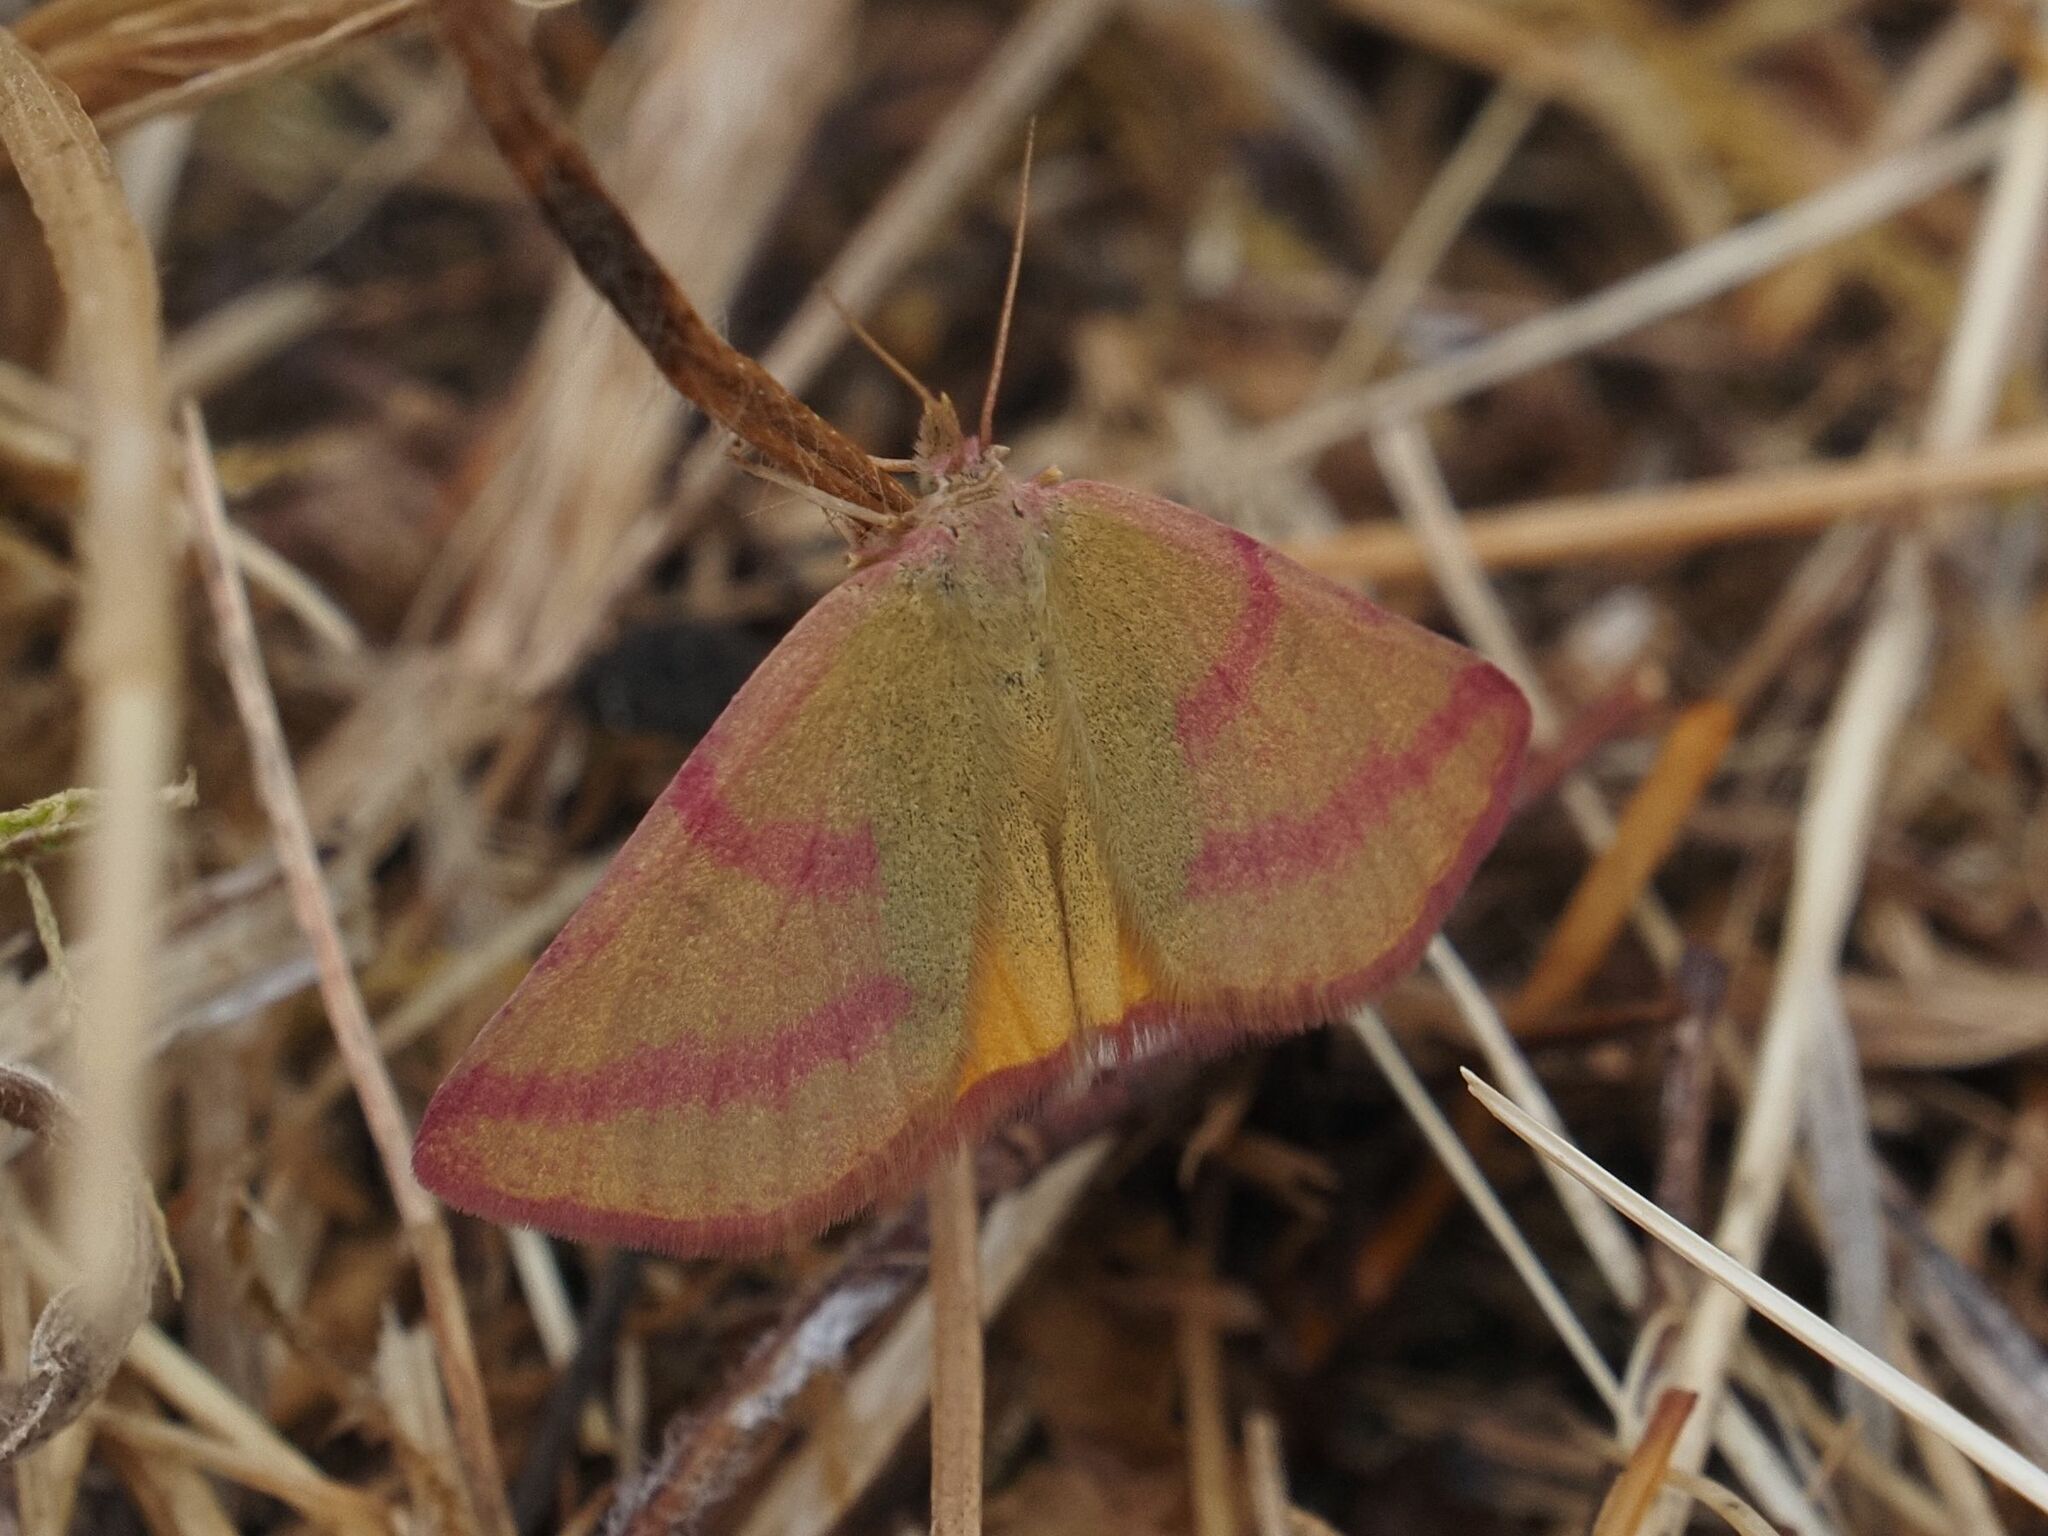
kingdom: Animalia
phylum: Arthropoda
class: Insecta
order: Lepidoptera
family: Geometridae
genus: Lythria
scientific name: Lythria purpuraria
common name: Purple-barred yellow
